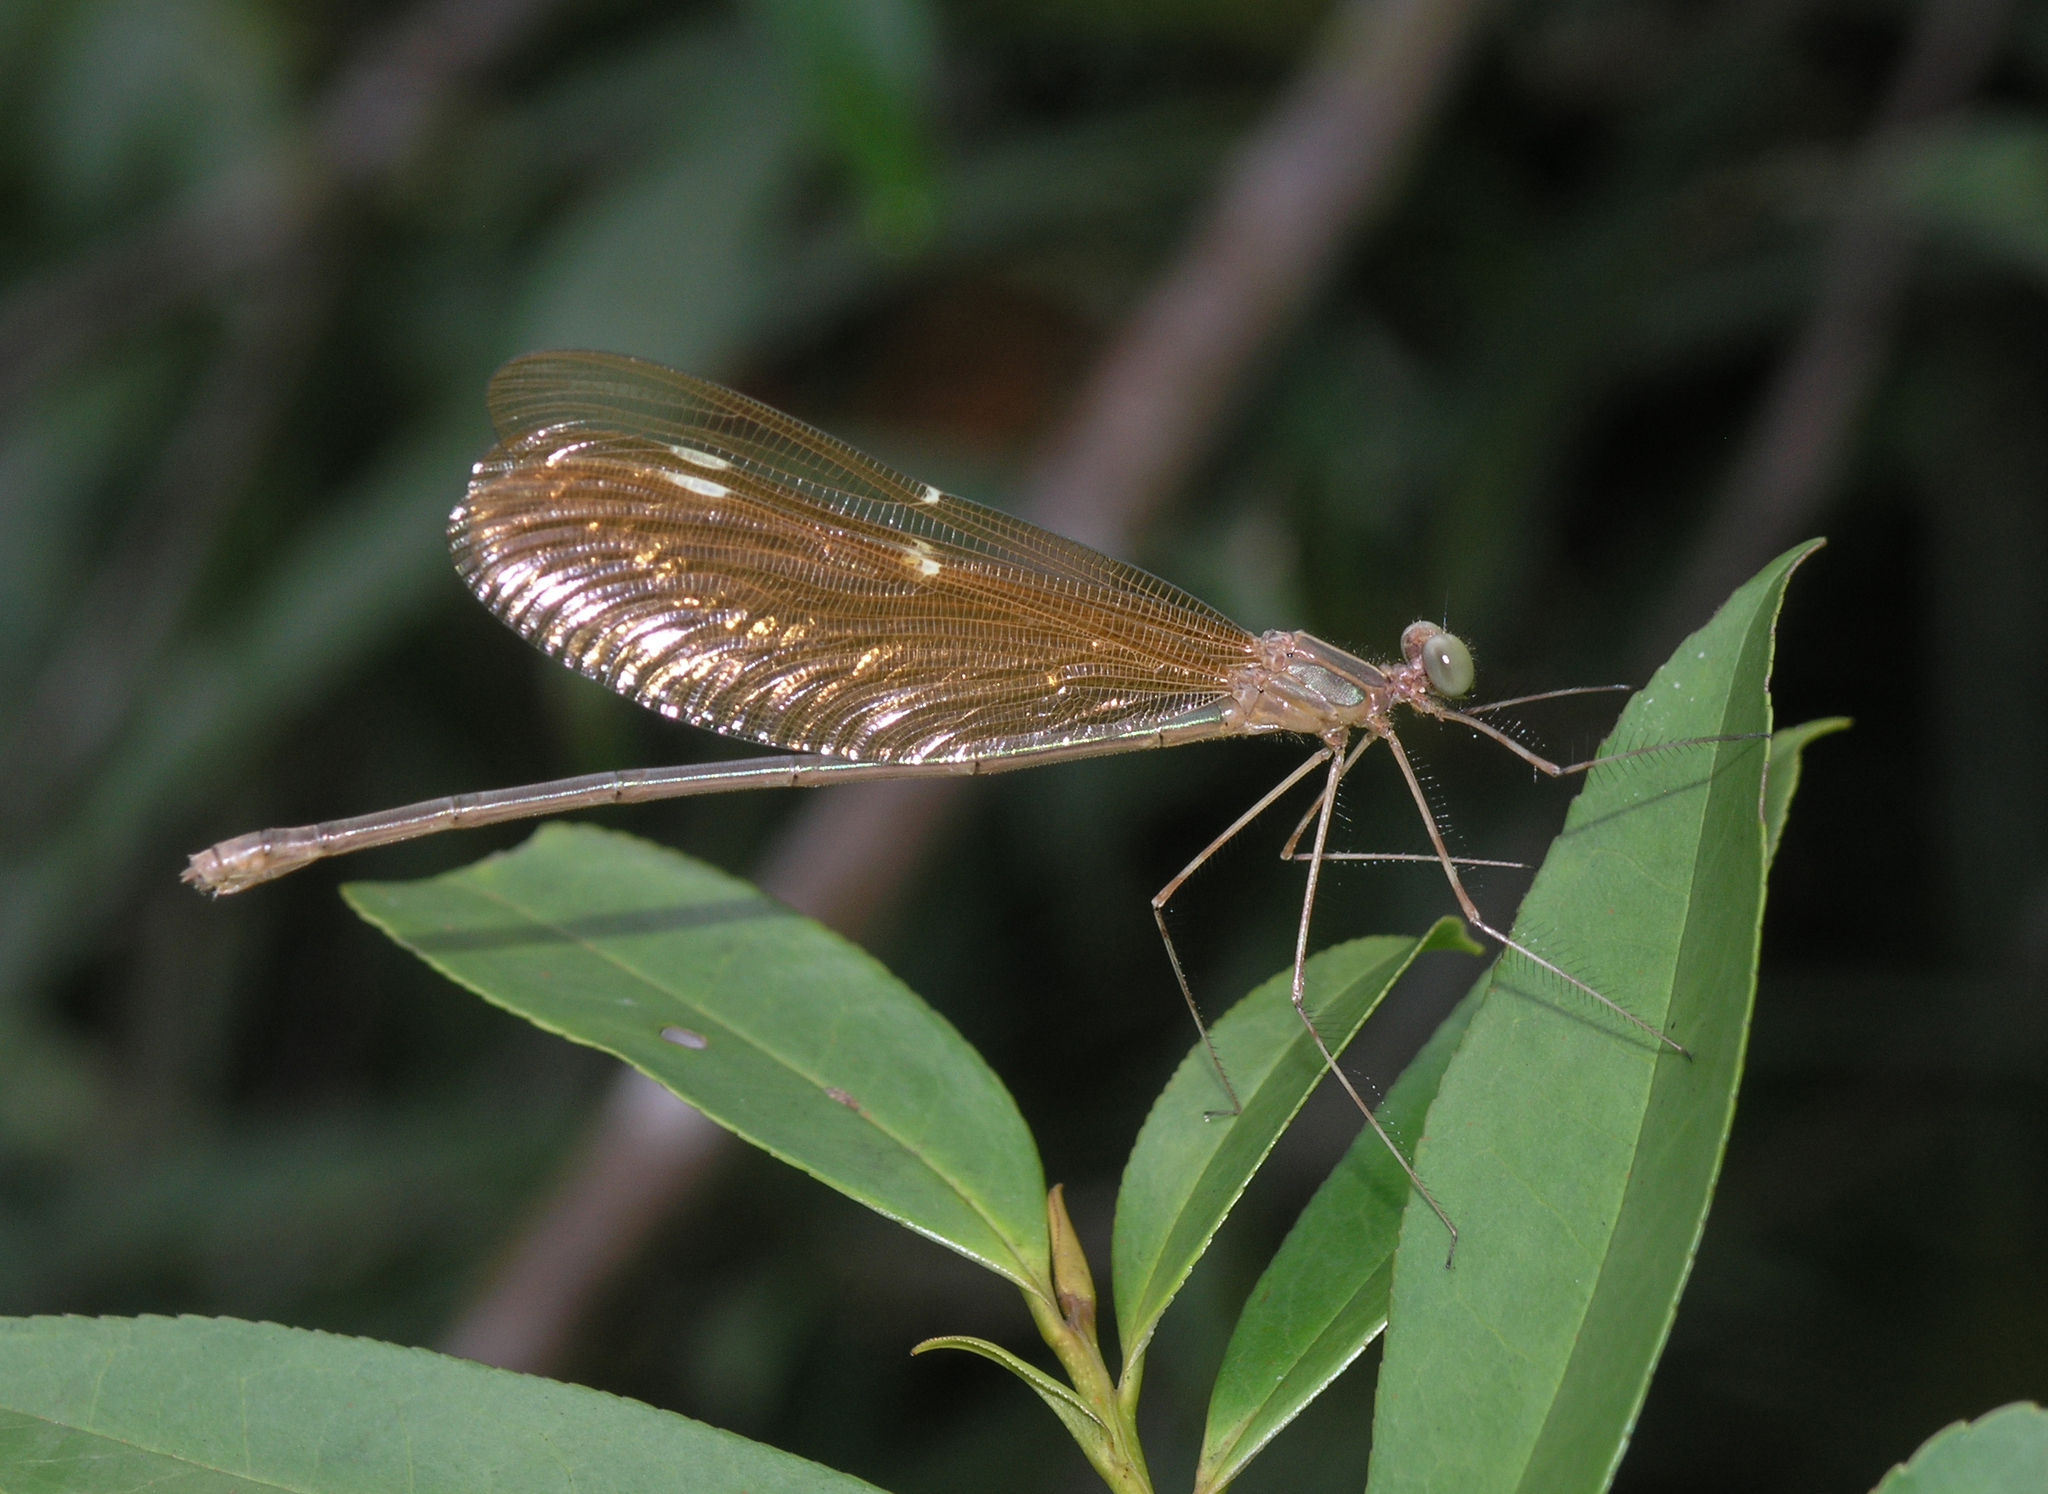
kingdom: Animalia
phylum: Arthropoda
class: Insecta
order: Odonata
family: Calopterygidae
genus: Neurobasis
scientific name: Neurobasis chinensis
